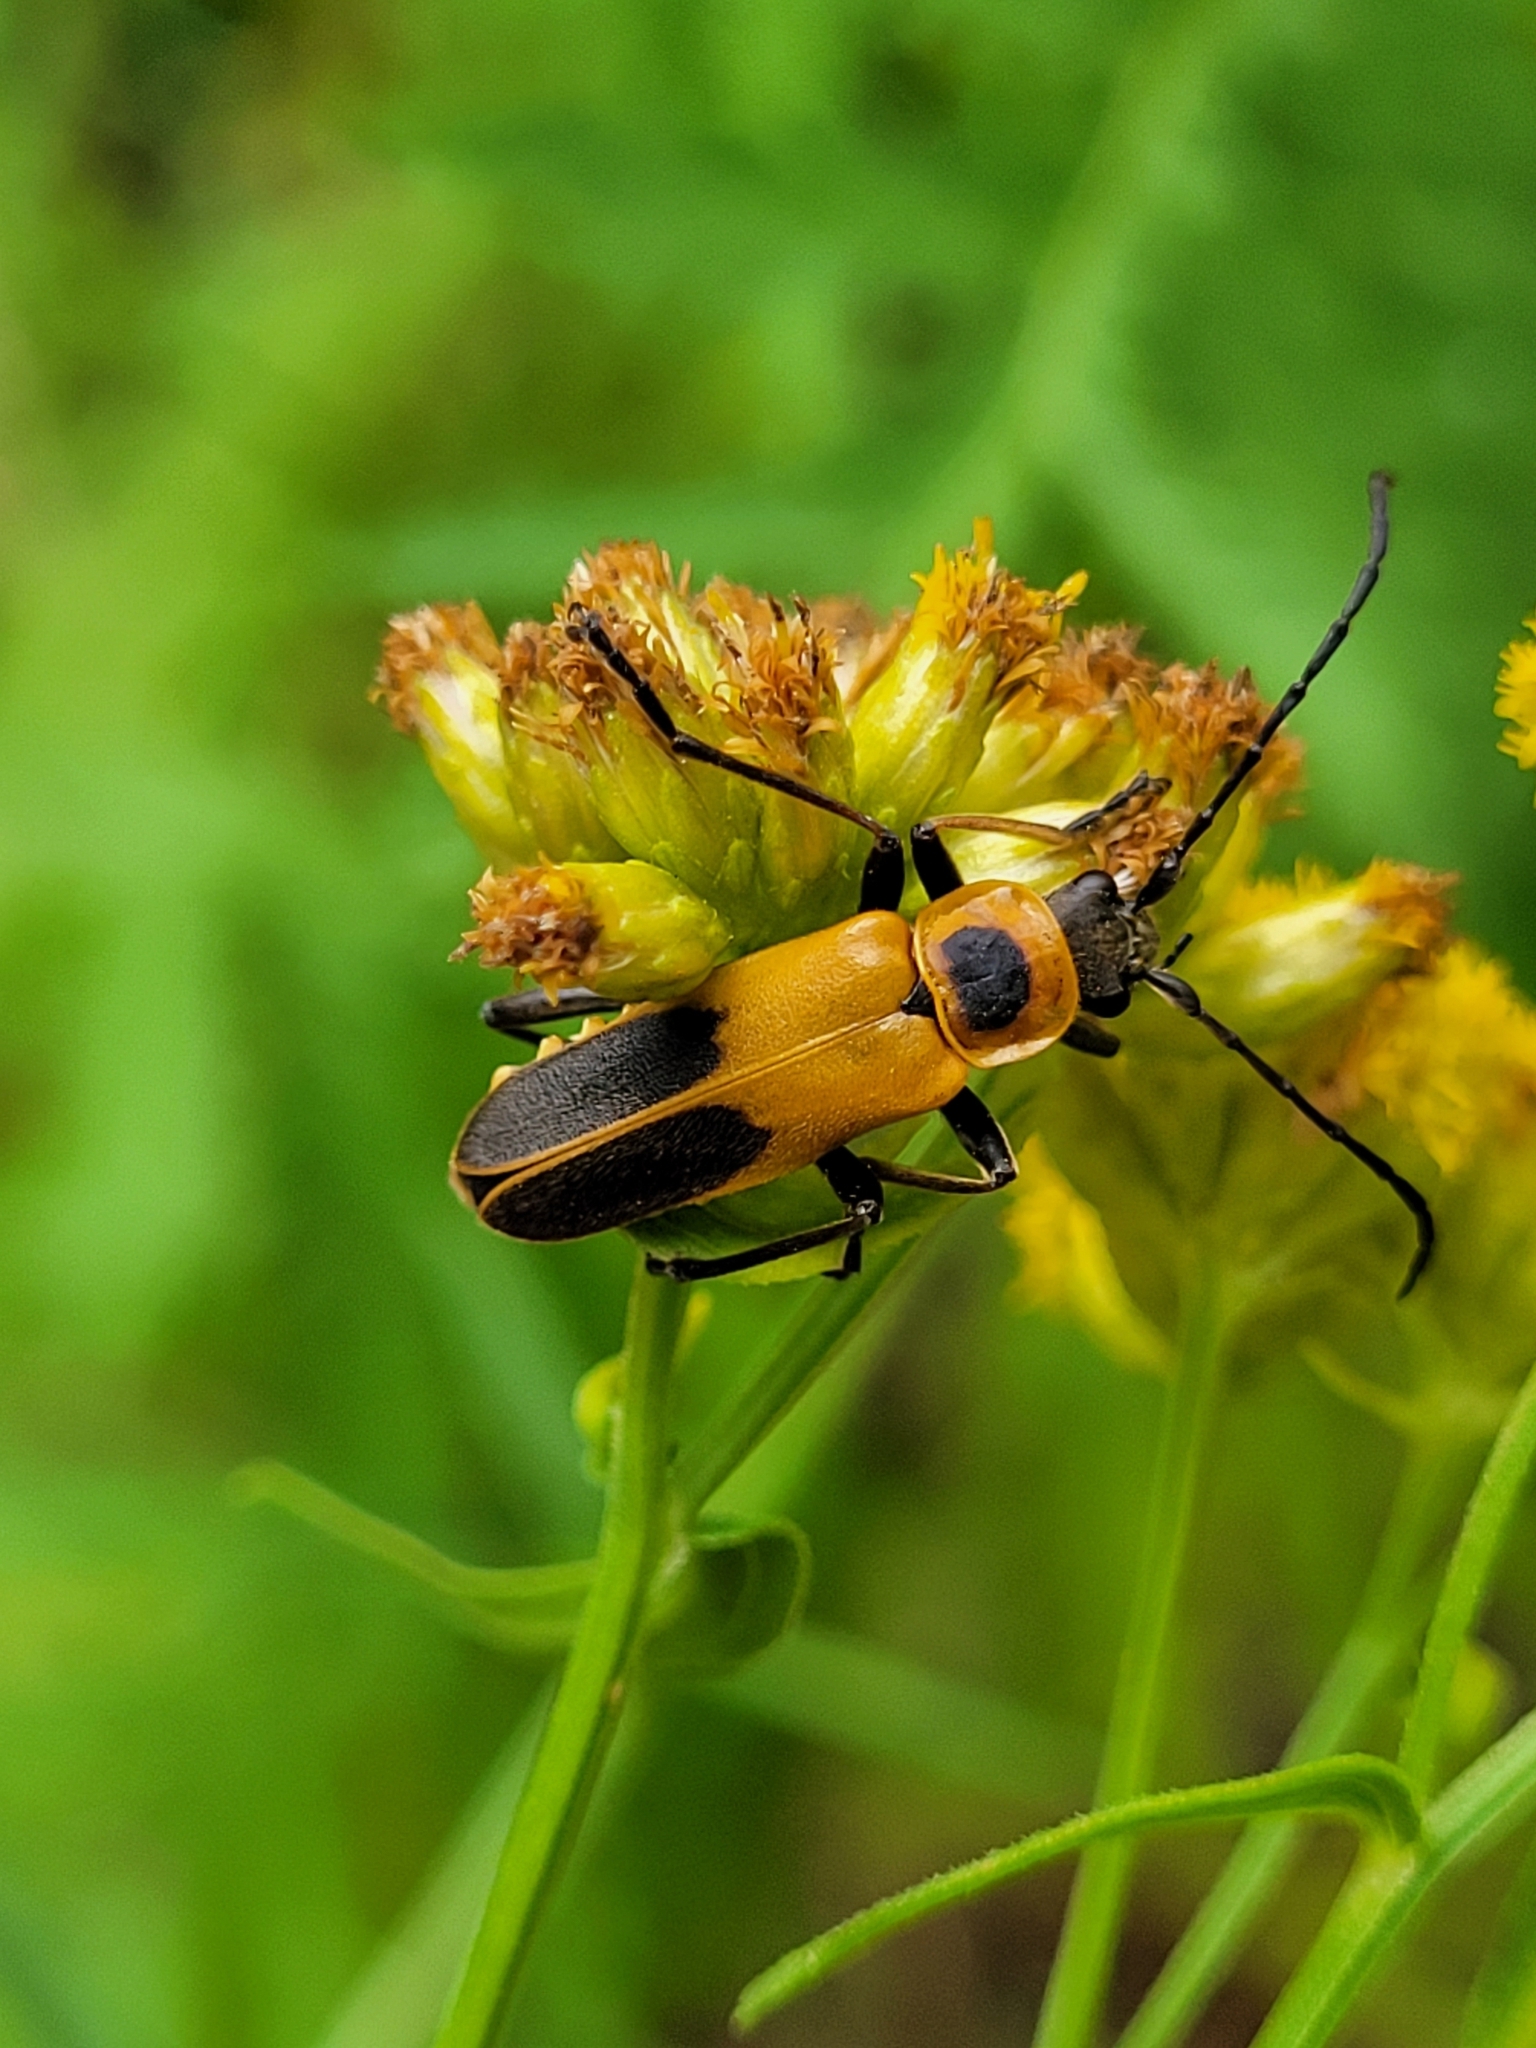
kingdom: Animalia
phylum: Arthropoda
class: Insecta
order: Coleoptera
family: Cantharidae
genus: Chauliognathus
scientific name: Chauliognathus pensylvanicus
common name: Goldenrod soldier beetle
